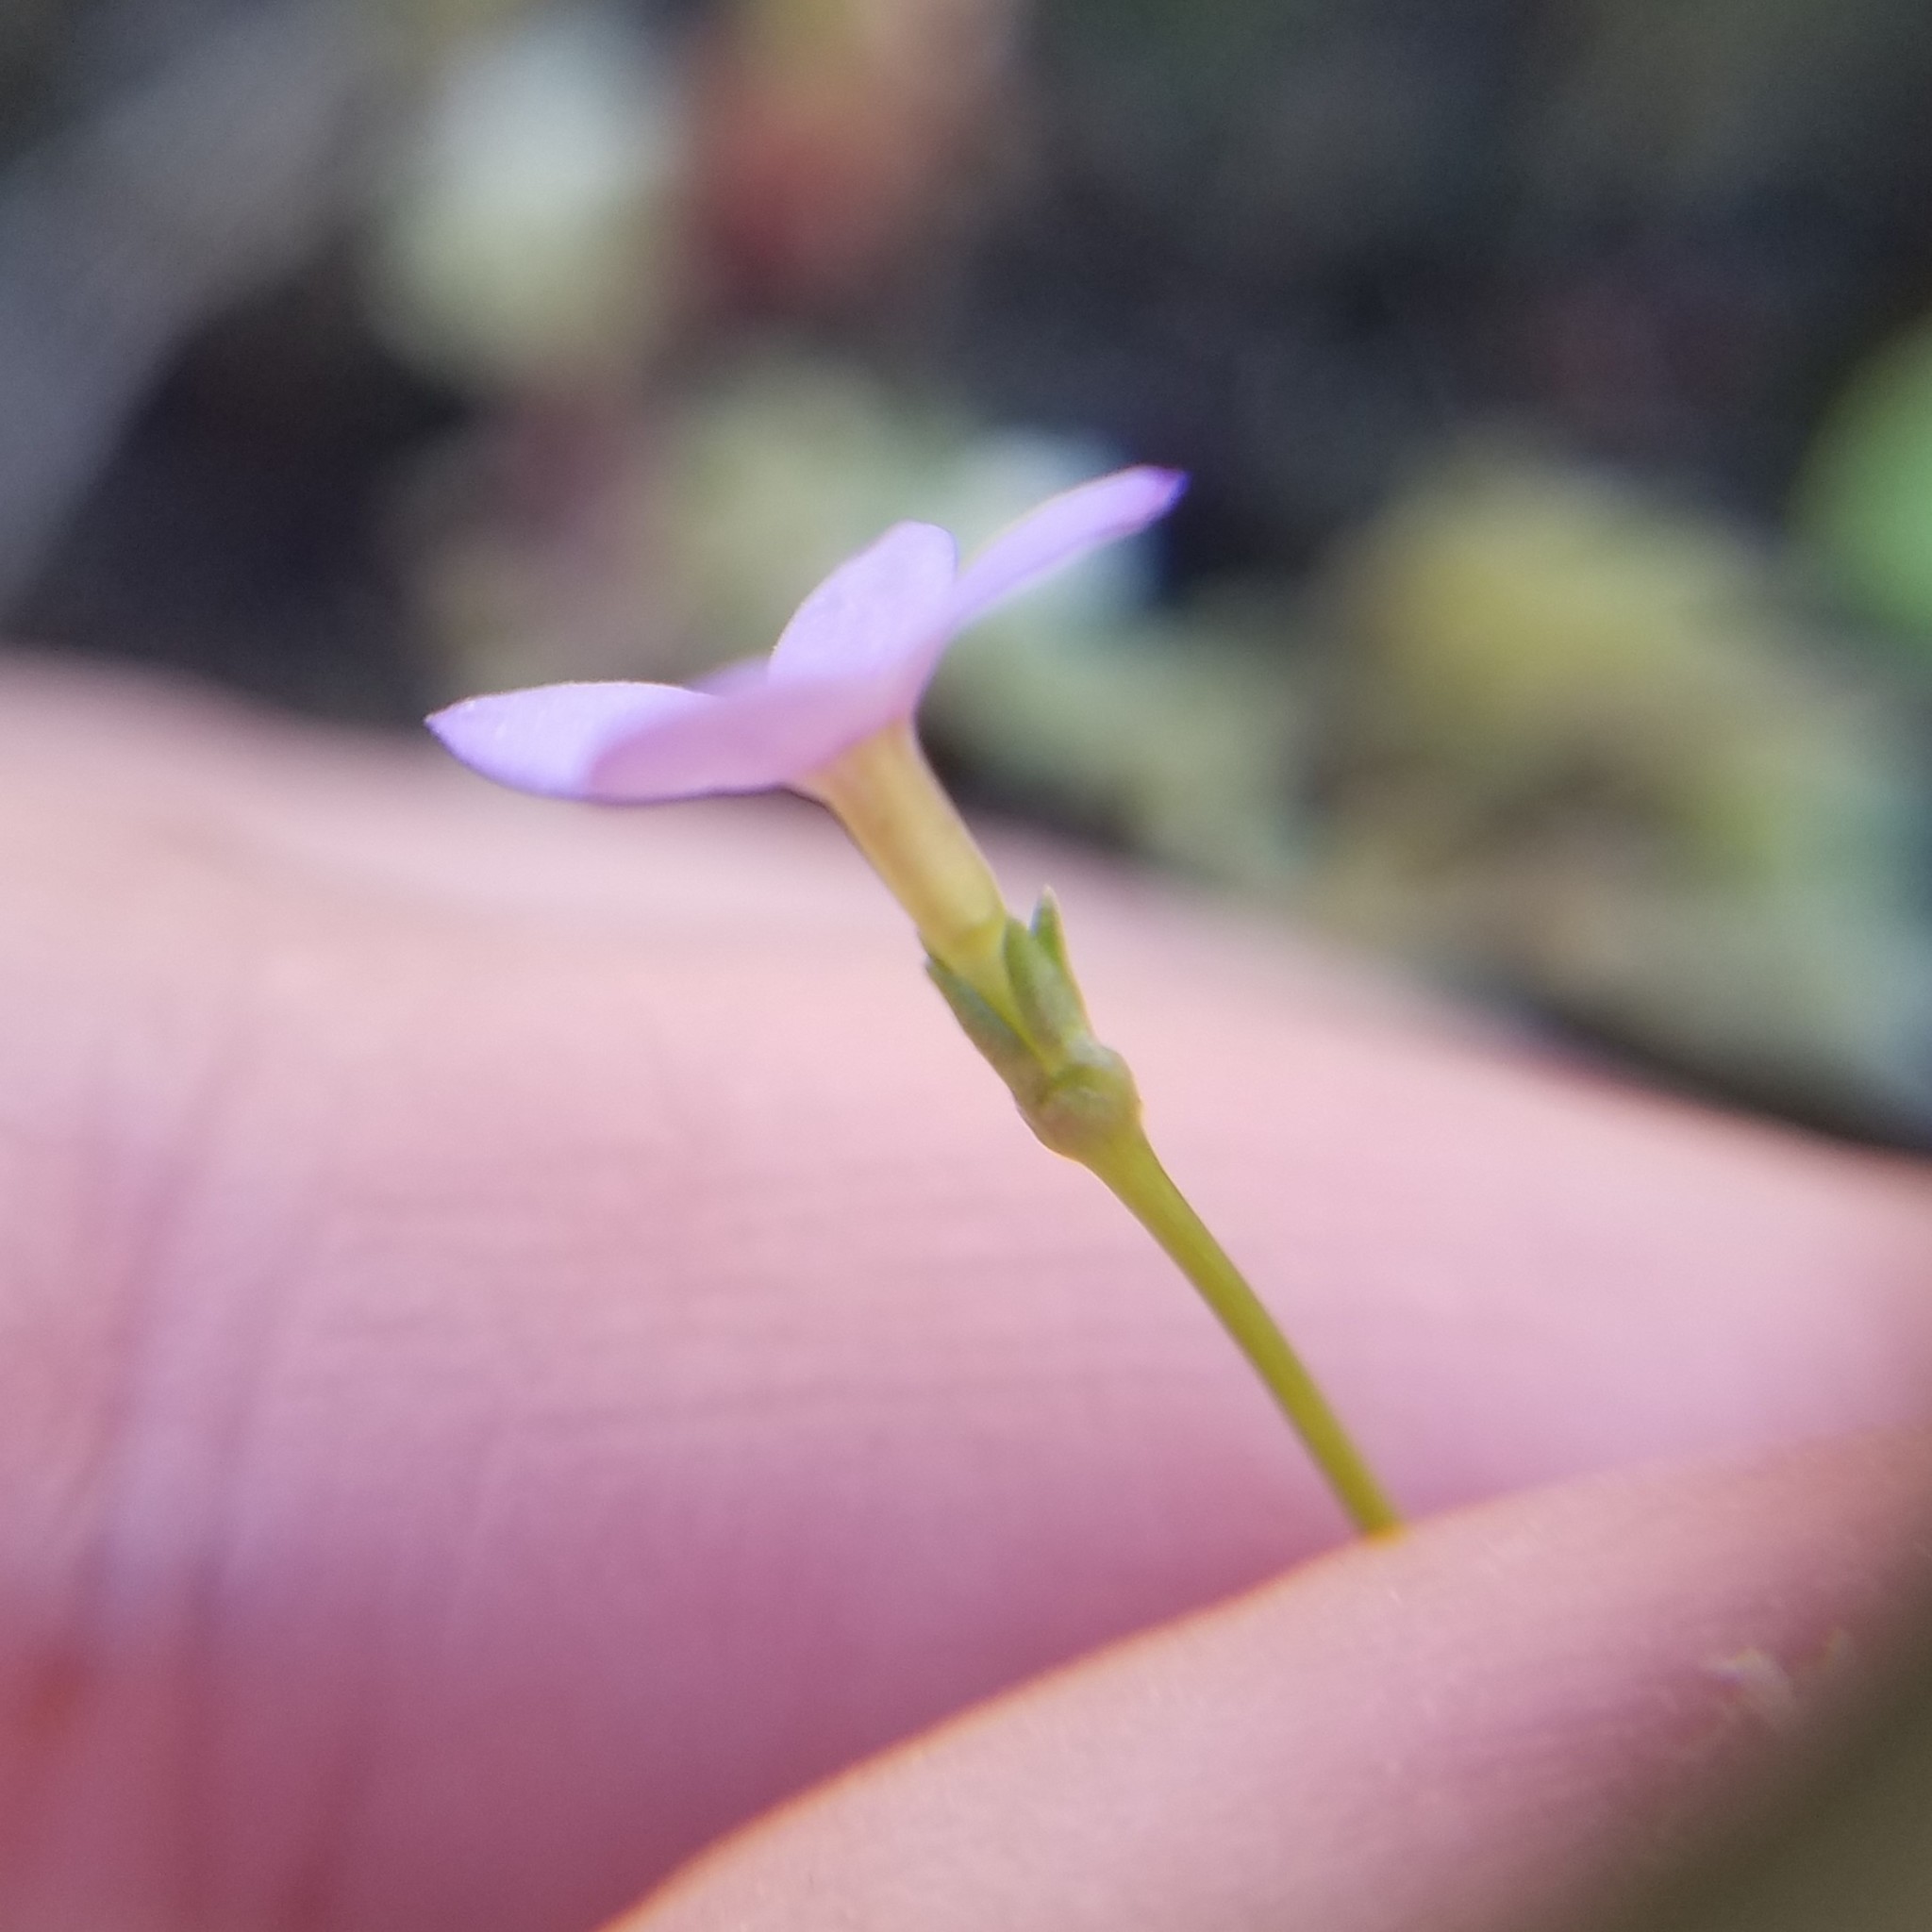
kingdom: Plantae
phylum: Tracheophyta
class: Magnoliopsida
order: Gentianales
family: Rubiaceae
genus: Houstonia
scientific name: Houstonia pusilla
